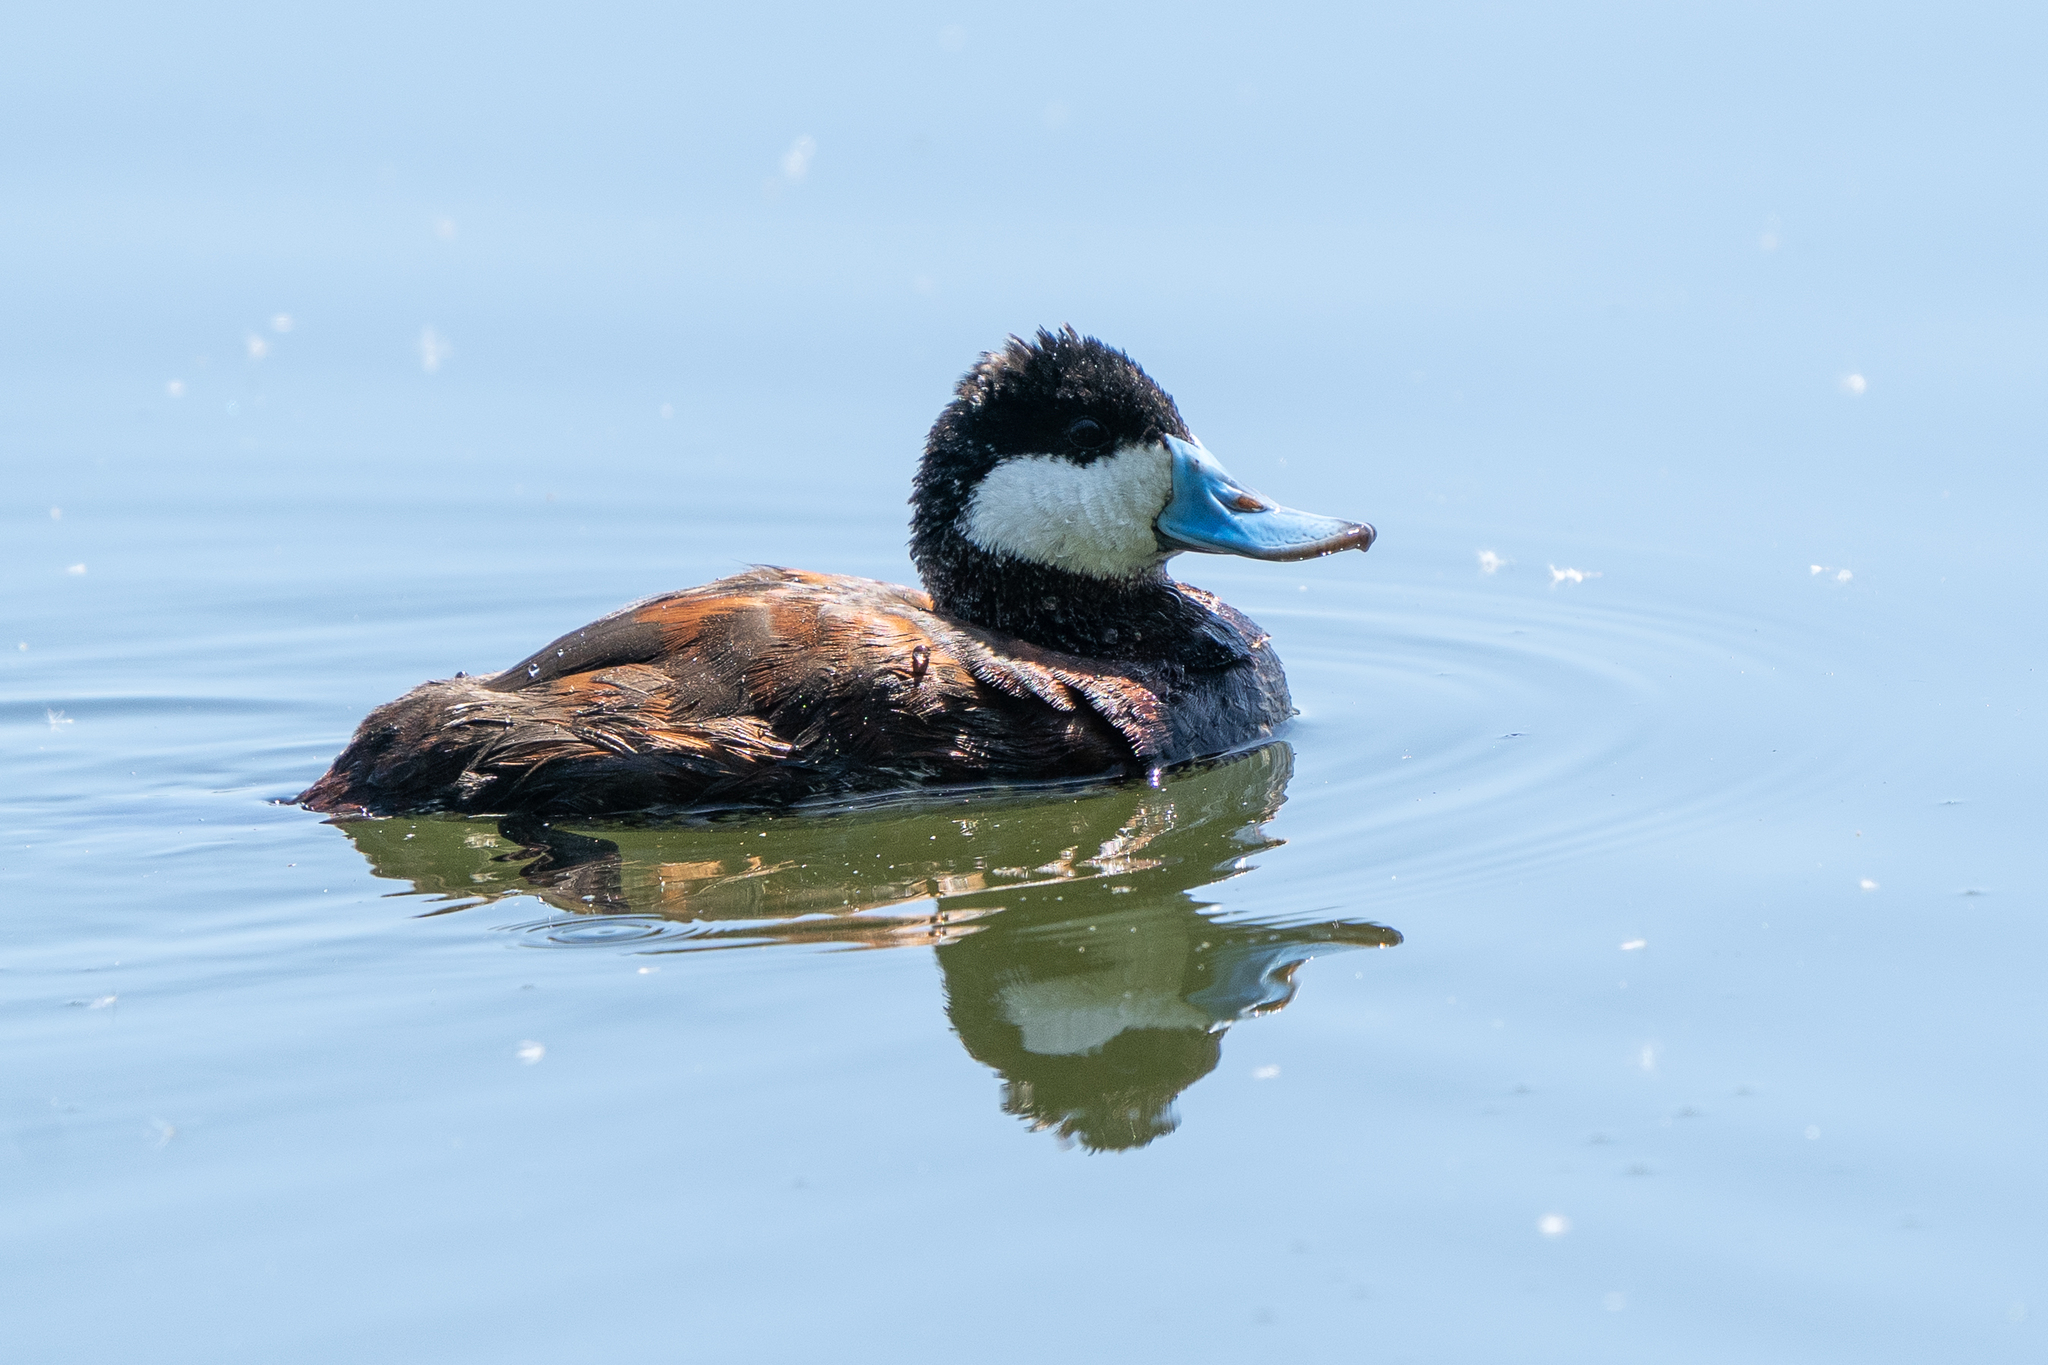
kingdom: Animalia
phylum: Chordata
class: Aves
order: Anseriformes
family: Anatidae
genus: Oxyura
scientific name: Oxyura jamaicensis
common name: Ruddy duck
